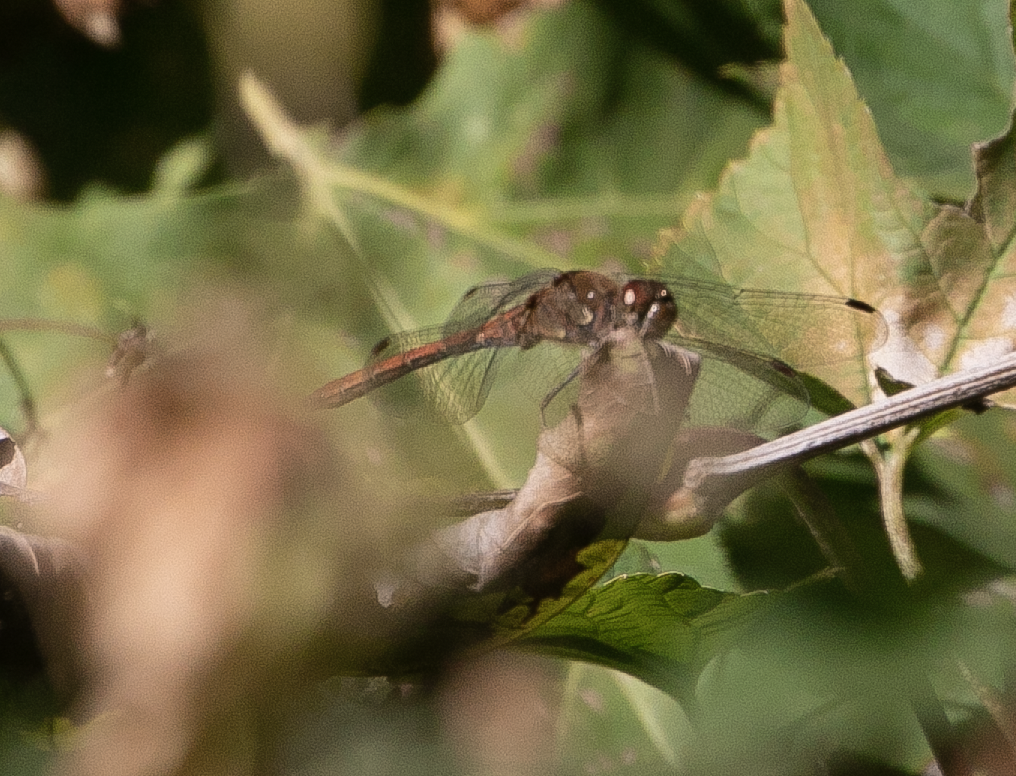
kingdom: Animalia
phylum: Arthropoda
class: Insecta
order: Odonata
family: Libellulidae
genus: Sympetrum
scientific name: Sympetrum striolatum
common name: Common darter
